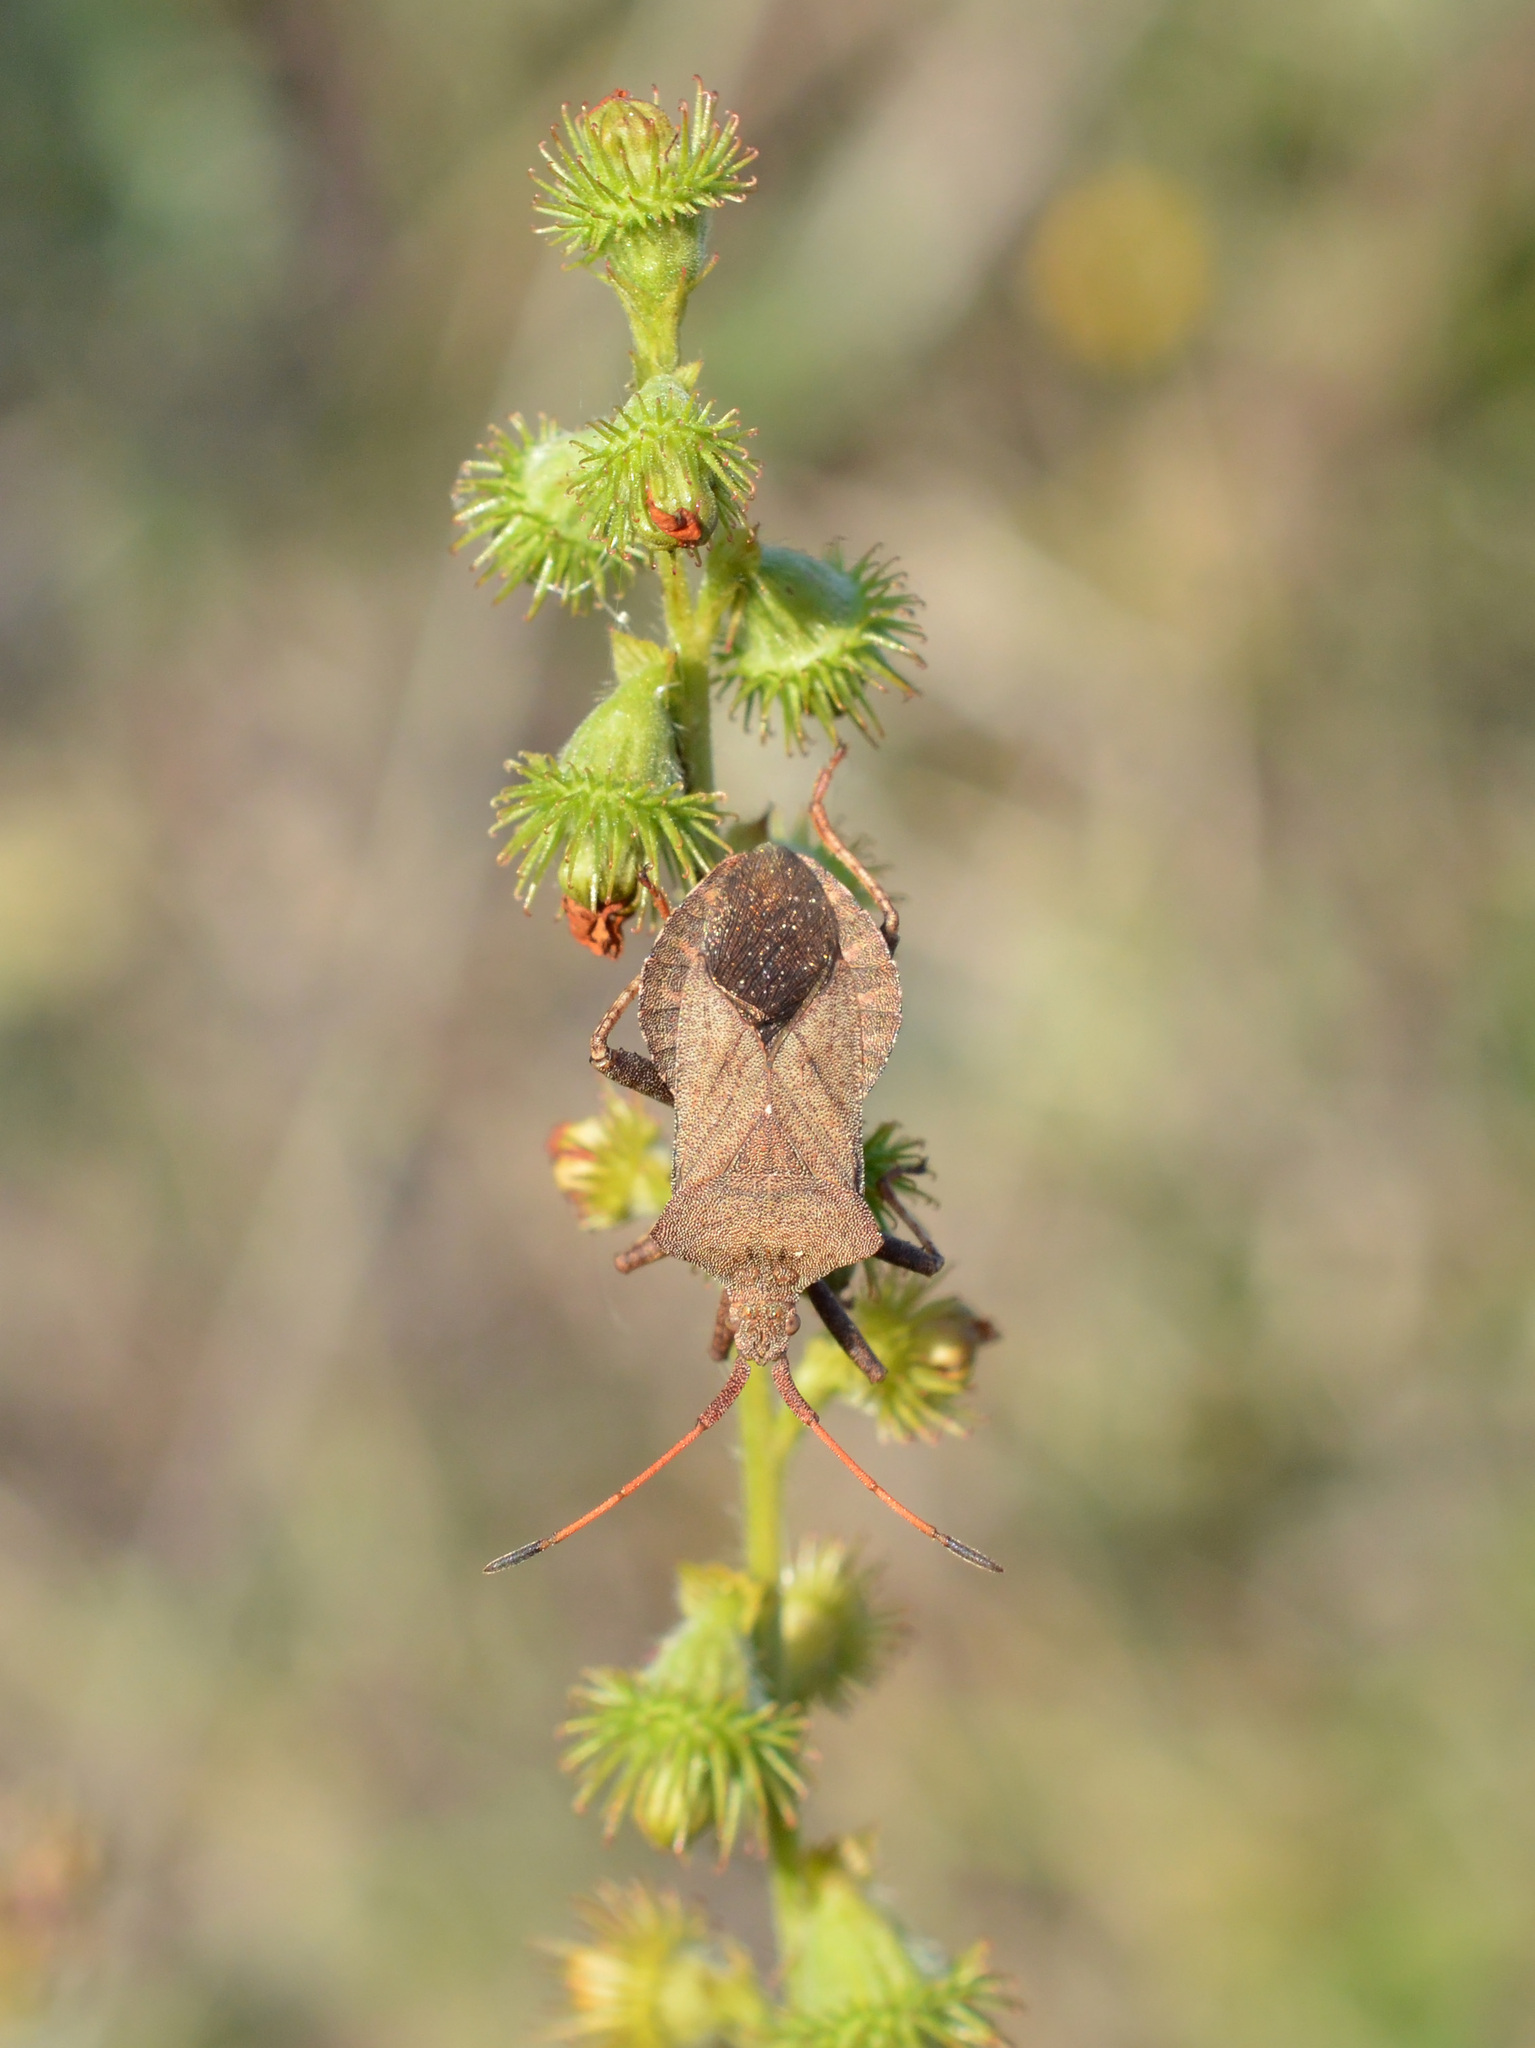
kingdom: Animalia
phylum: Arthropoda
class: Insecta
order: Hemiptera
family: Coreidae
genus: Coreus
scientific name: Coreus marginatus
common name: Dock bug
